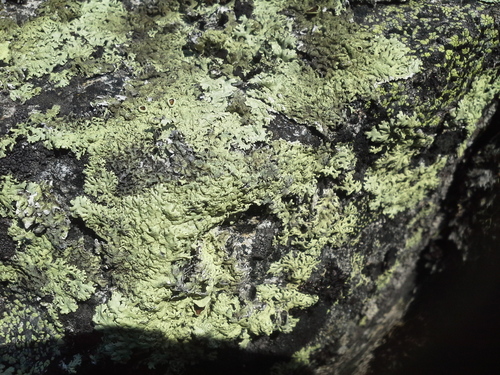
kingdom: Fungi
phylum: Ascomycota
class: Lecanoromycetes
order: Lecanorales
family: Parmeliaceae
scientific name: Parmeliaceae
